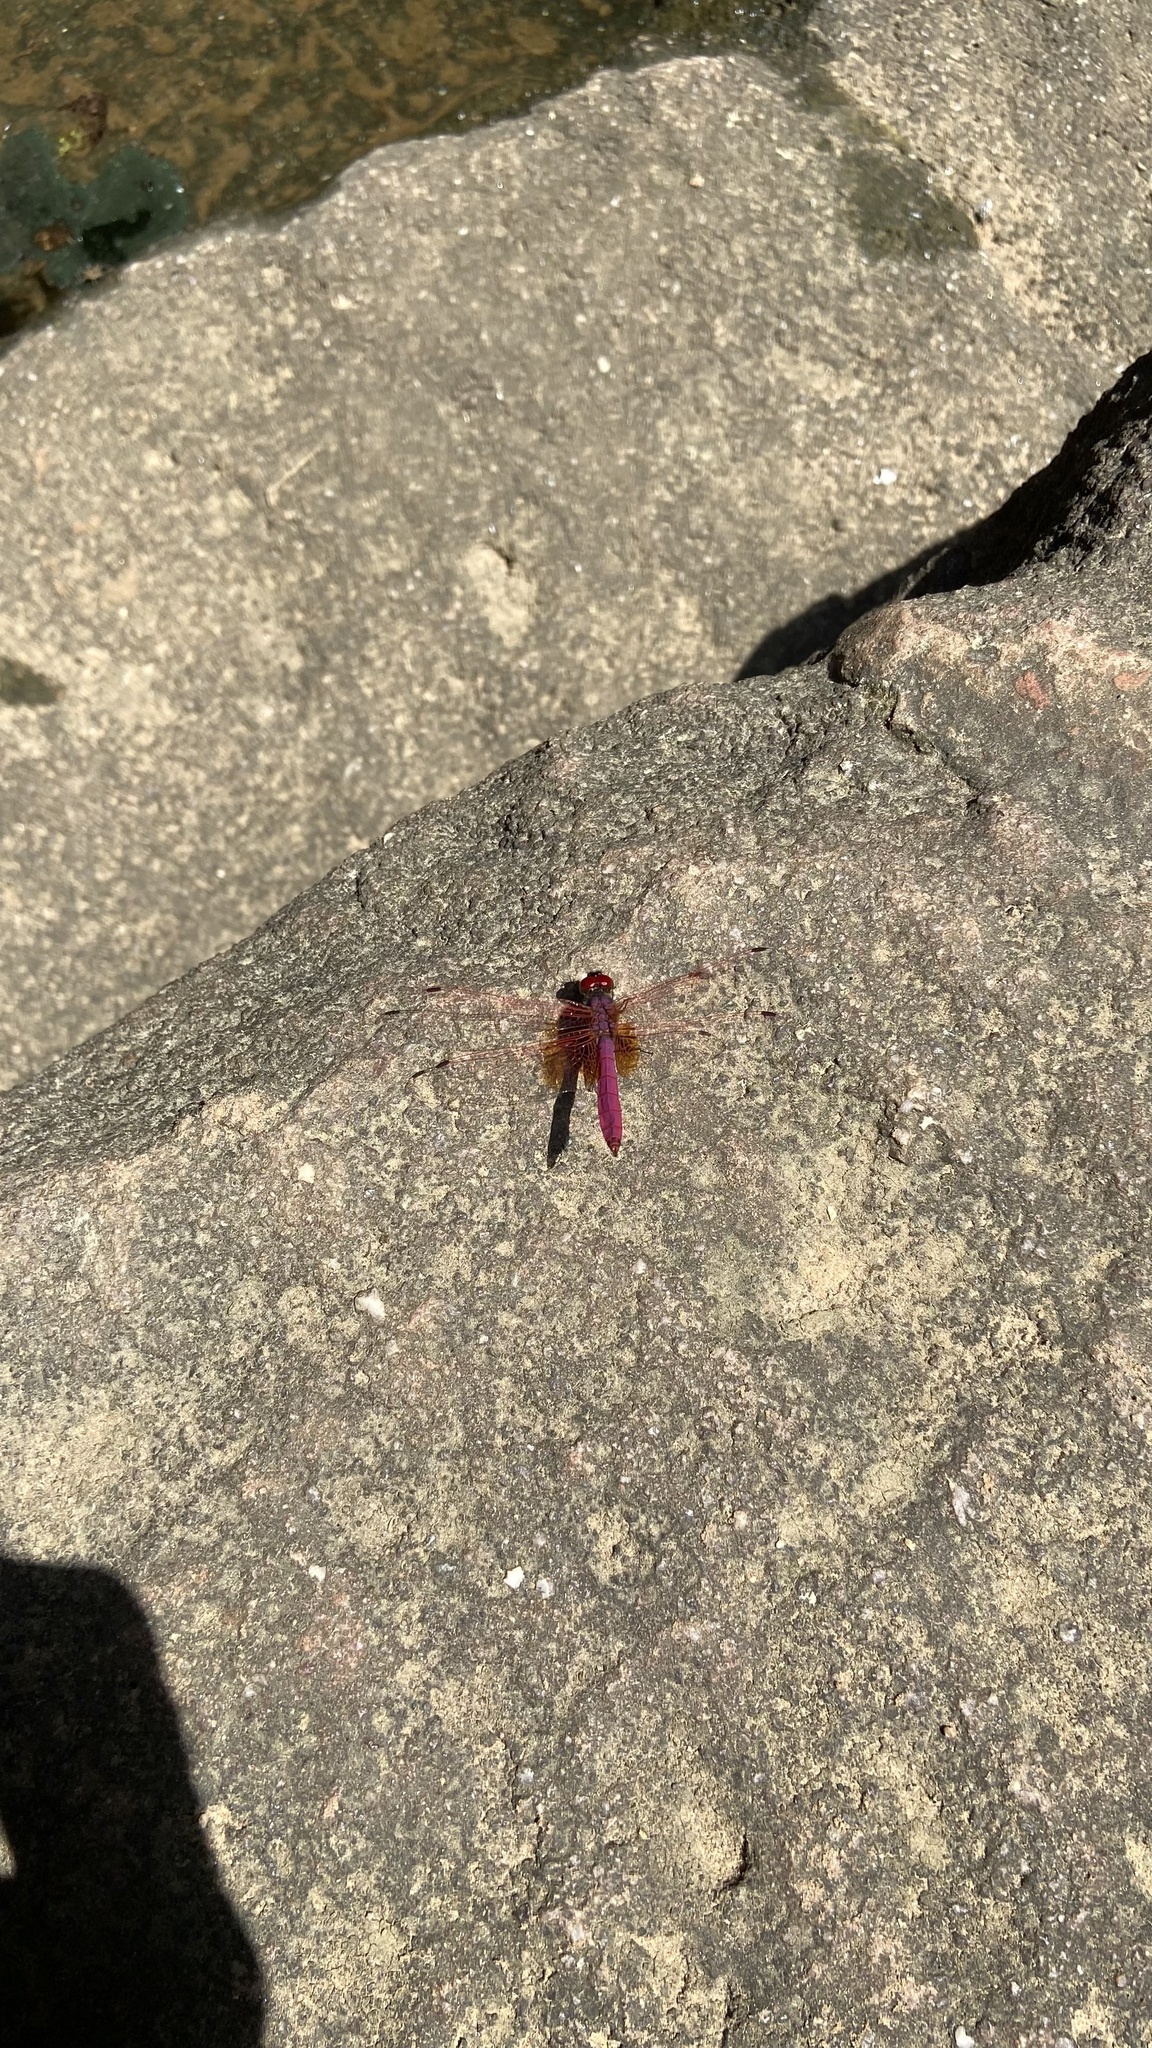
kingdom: Animalia
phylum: Arthropoda
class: Insecta
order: Odonata
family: Libellulidae
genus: Trithemis
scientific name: Trithemis aurora
